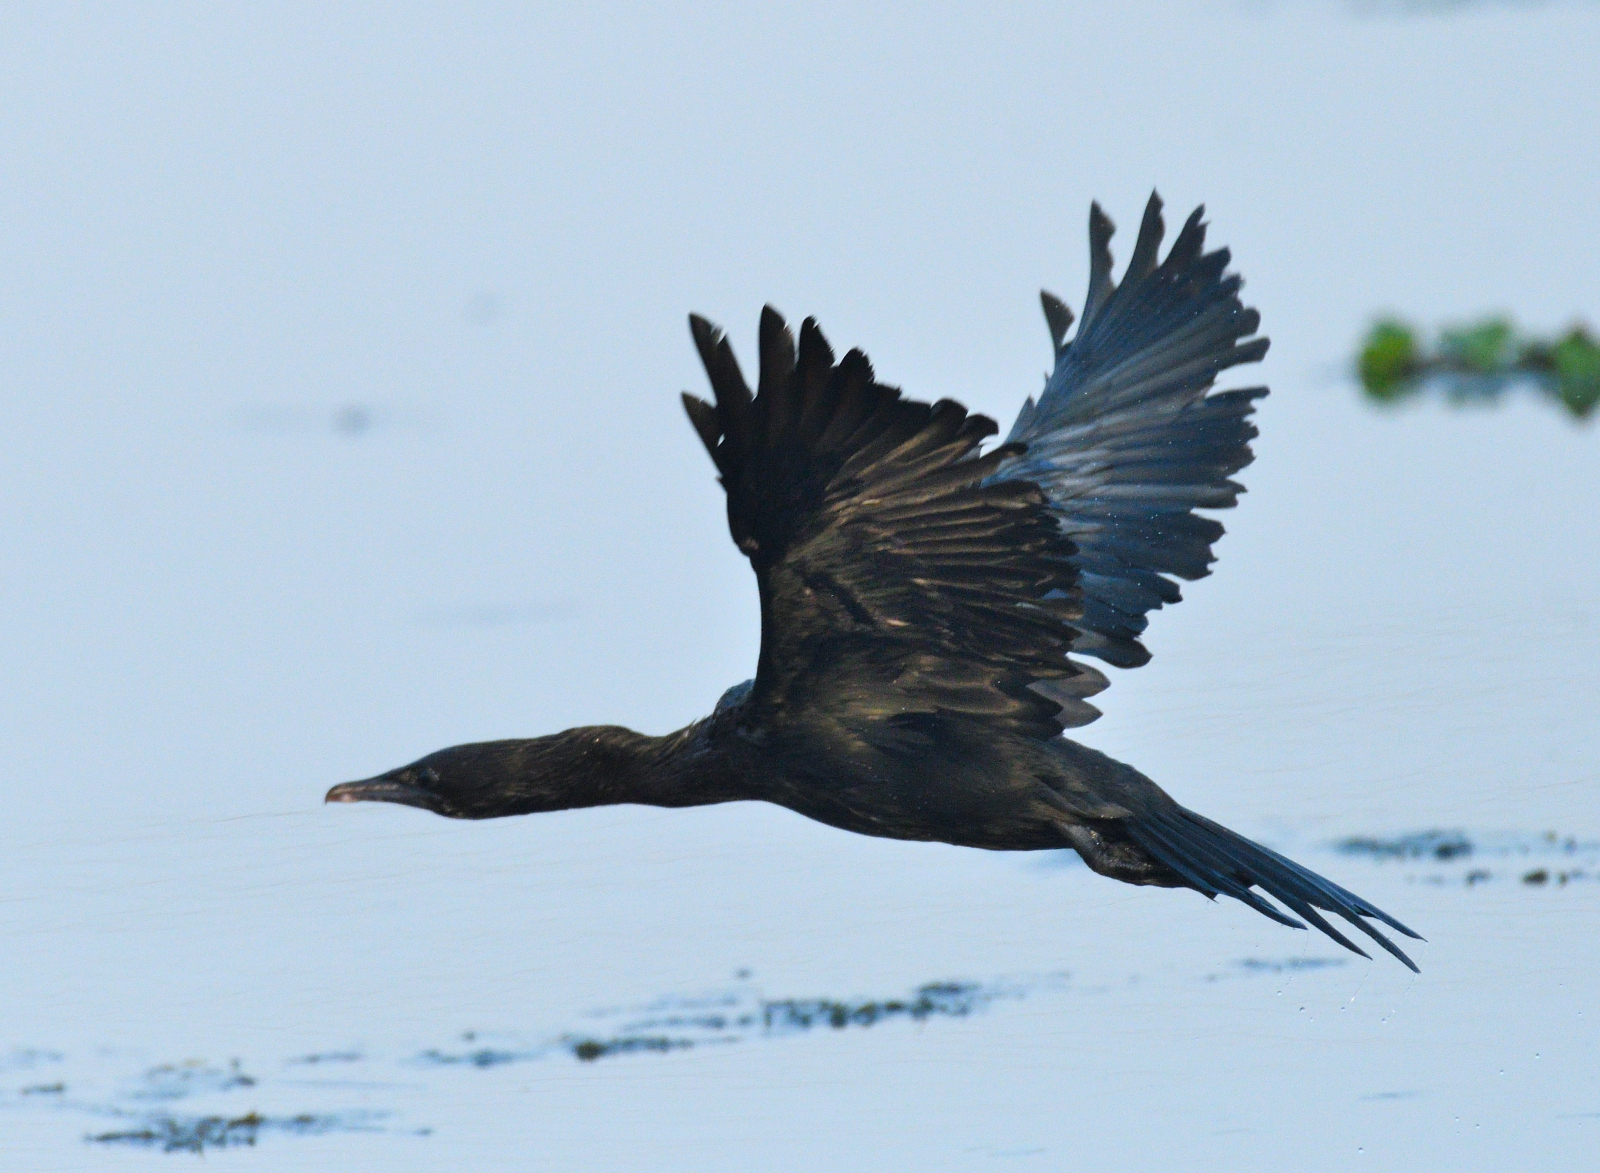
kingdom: Animalia
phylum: Chordata
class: Aves
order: Suliformes
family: Phalacrocoracidae
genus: Microcarbo
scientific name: Microcarbo niger
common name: Little cormorant
